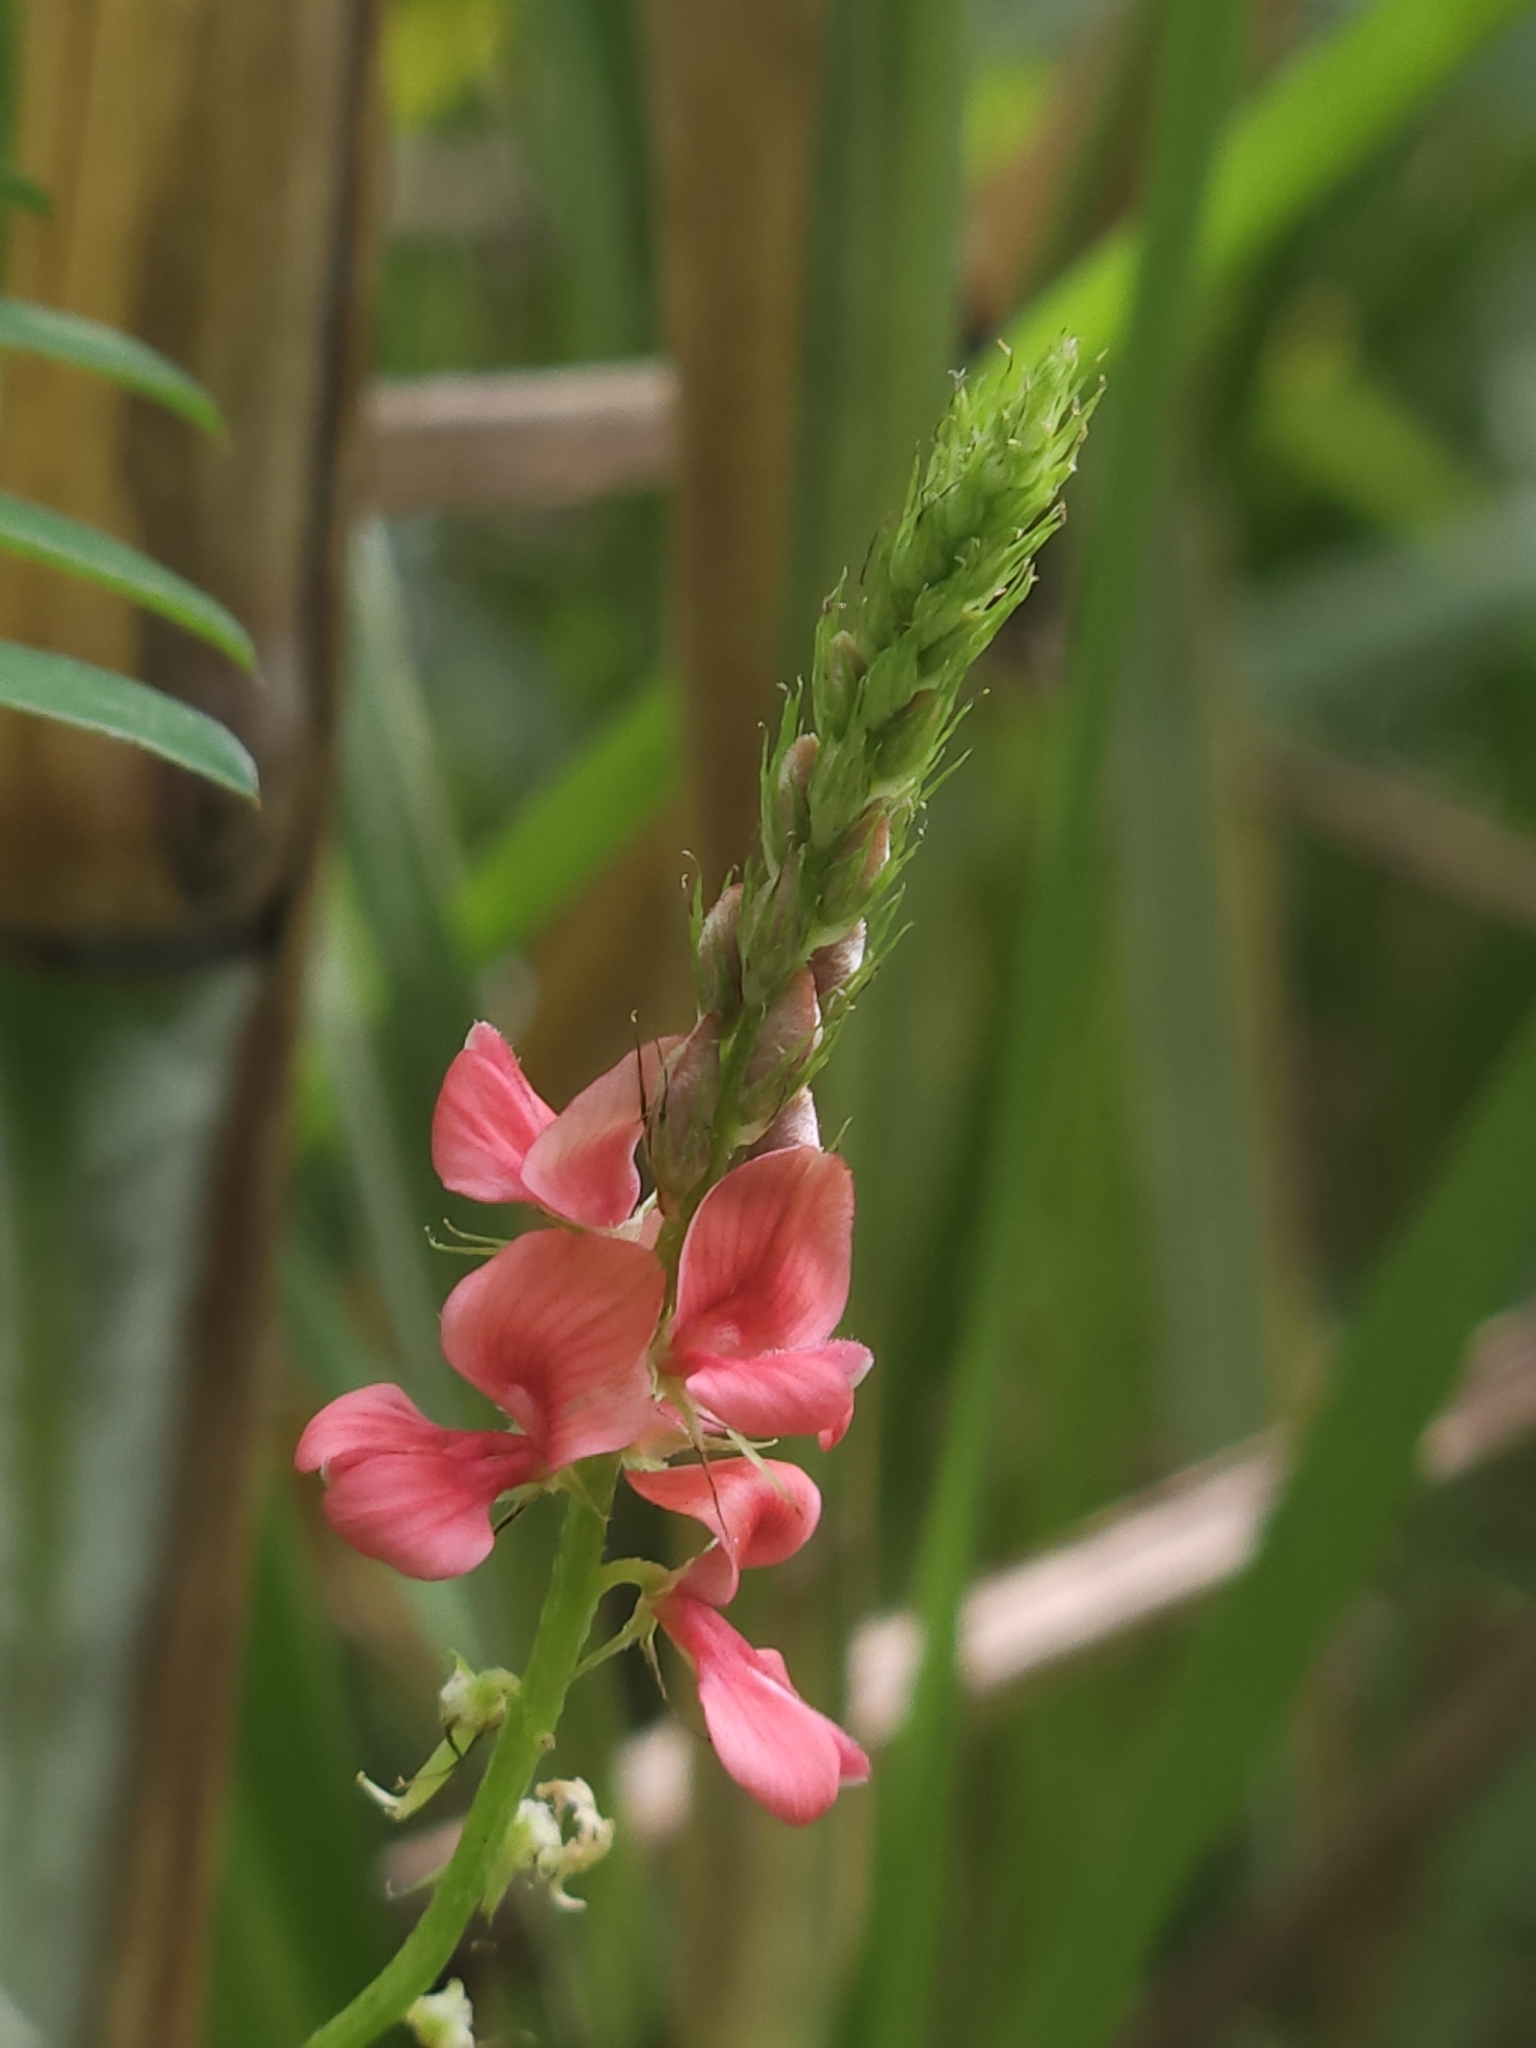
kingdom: Plantae
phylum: Tracheophyta
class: Magnoliopsida
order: Fabales
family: Fabaceae
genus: Indigofera
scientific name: Indigofera hendecaphylla
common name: Trailing indigo
